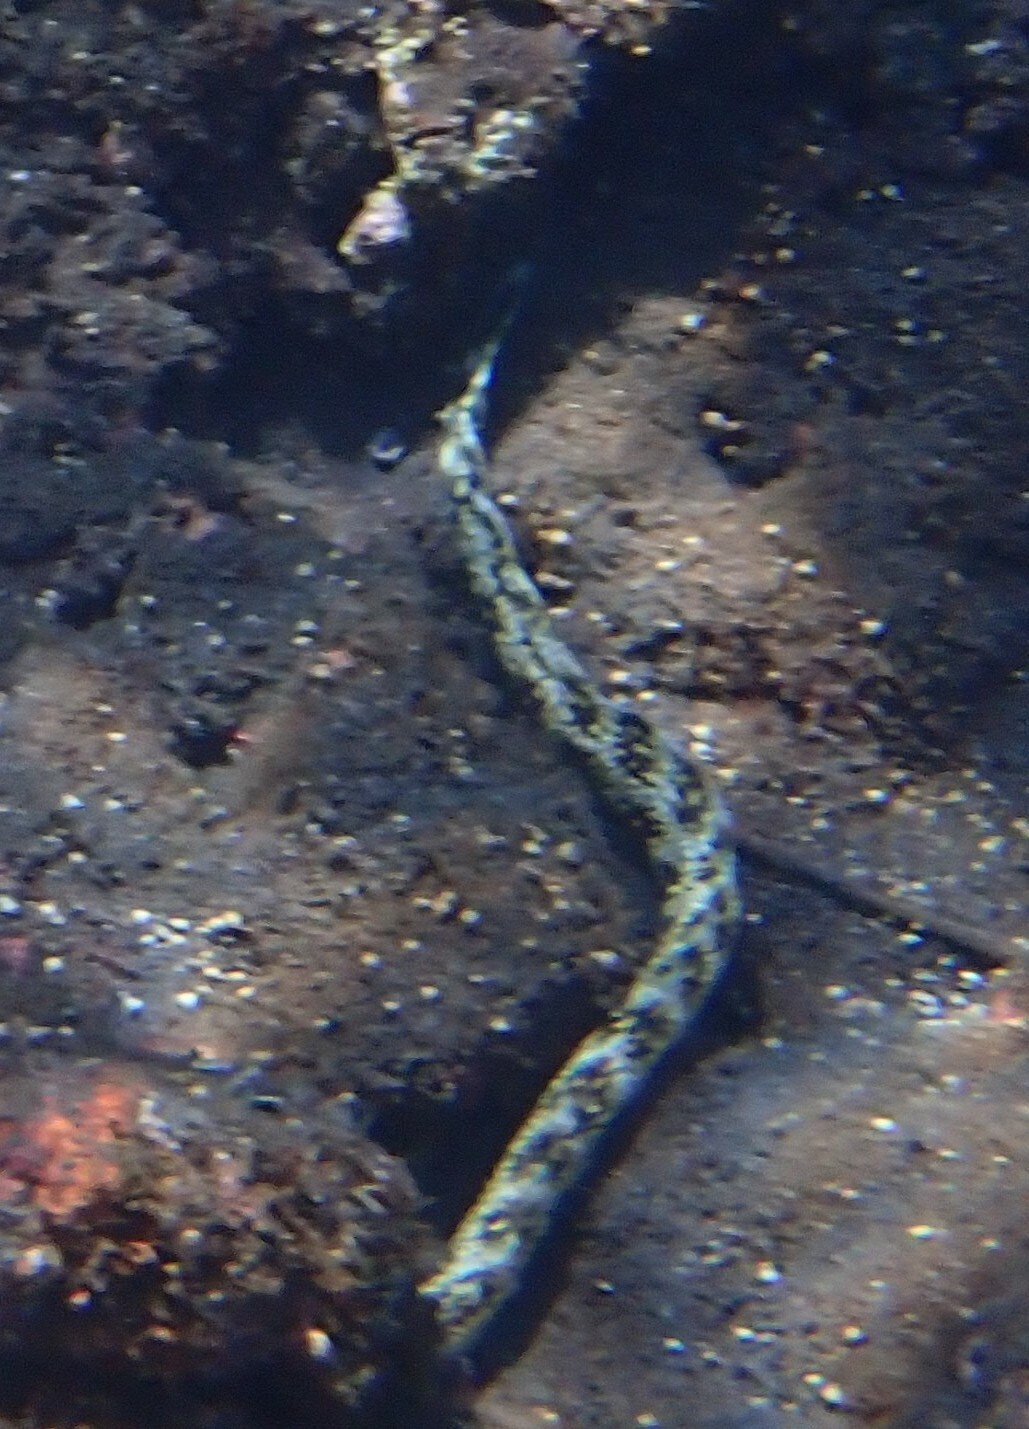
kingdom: Animalia
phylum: Chordata
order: Anguilliformes
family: Muraenidae
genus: Echidna
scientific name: Echidna nebulosa
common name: Snowflake moray
